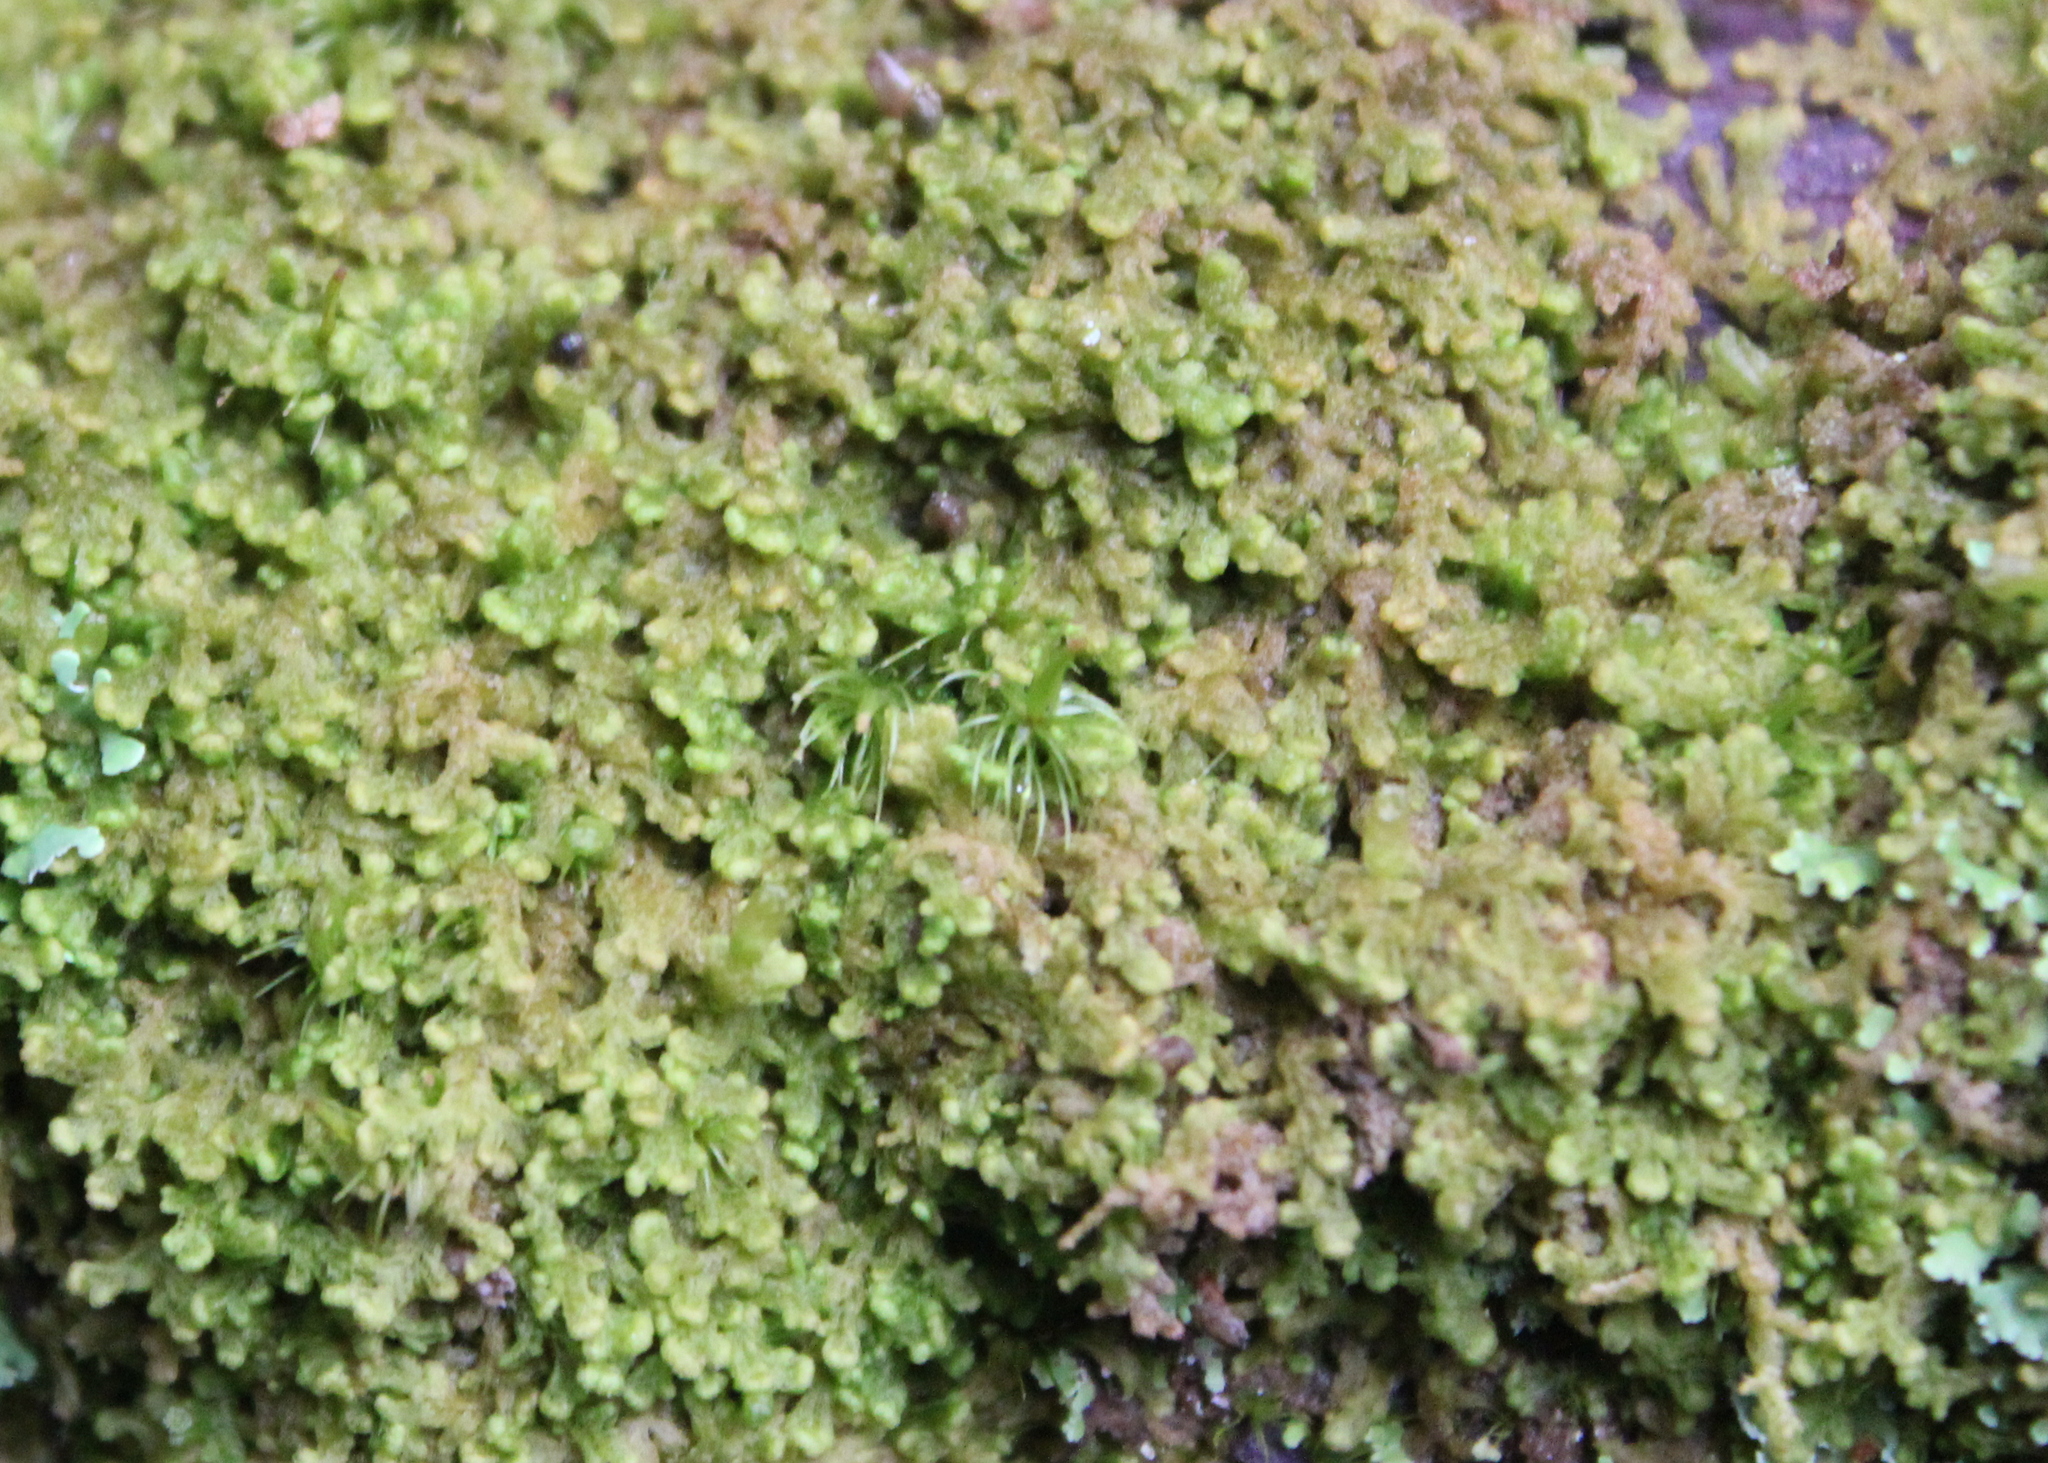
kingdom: Plantae
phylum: Marchantiophyta
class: Jungermanniopsida
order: Ptilidiales
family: Ptilidiaceae
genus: Ptilidium
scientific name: Ptilidium pulcherrimum
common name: Tree fringewort
